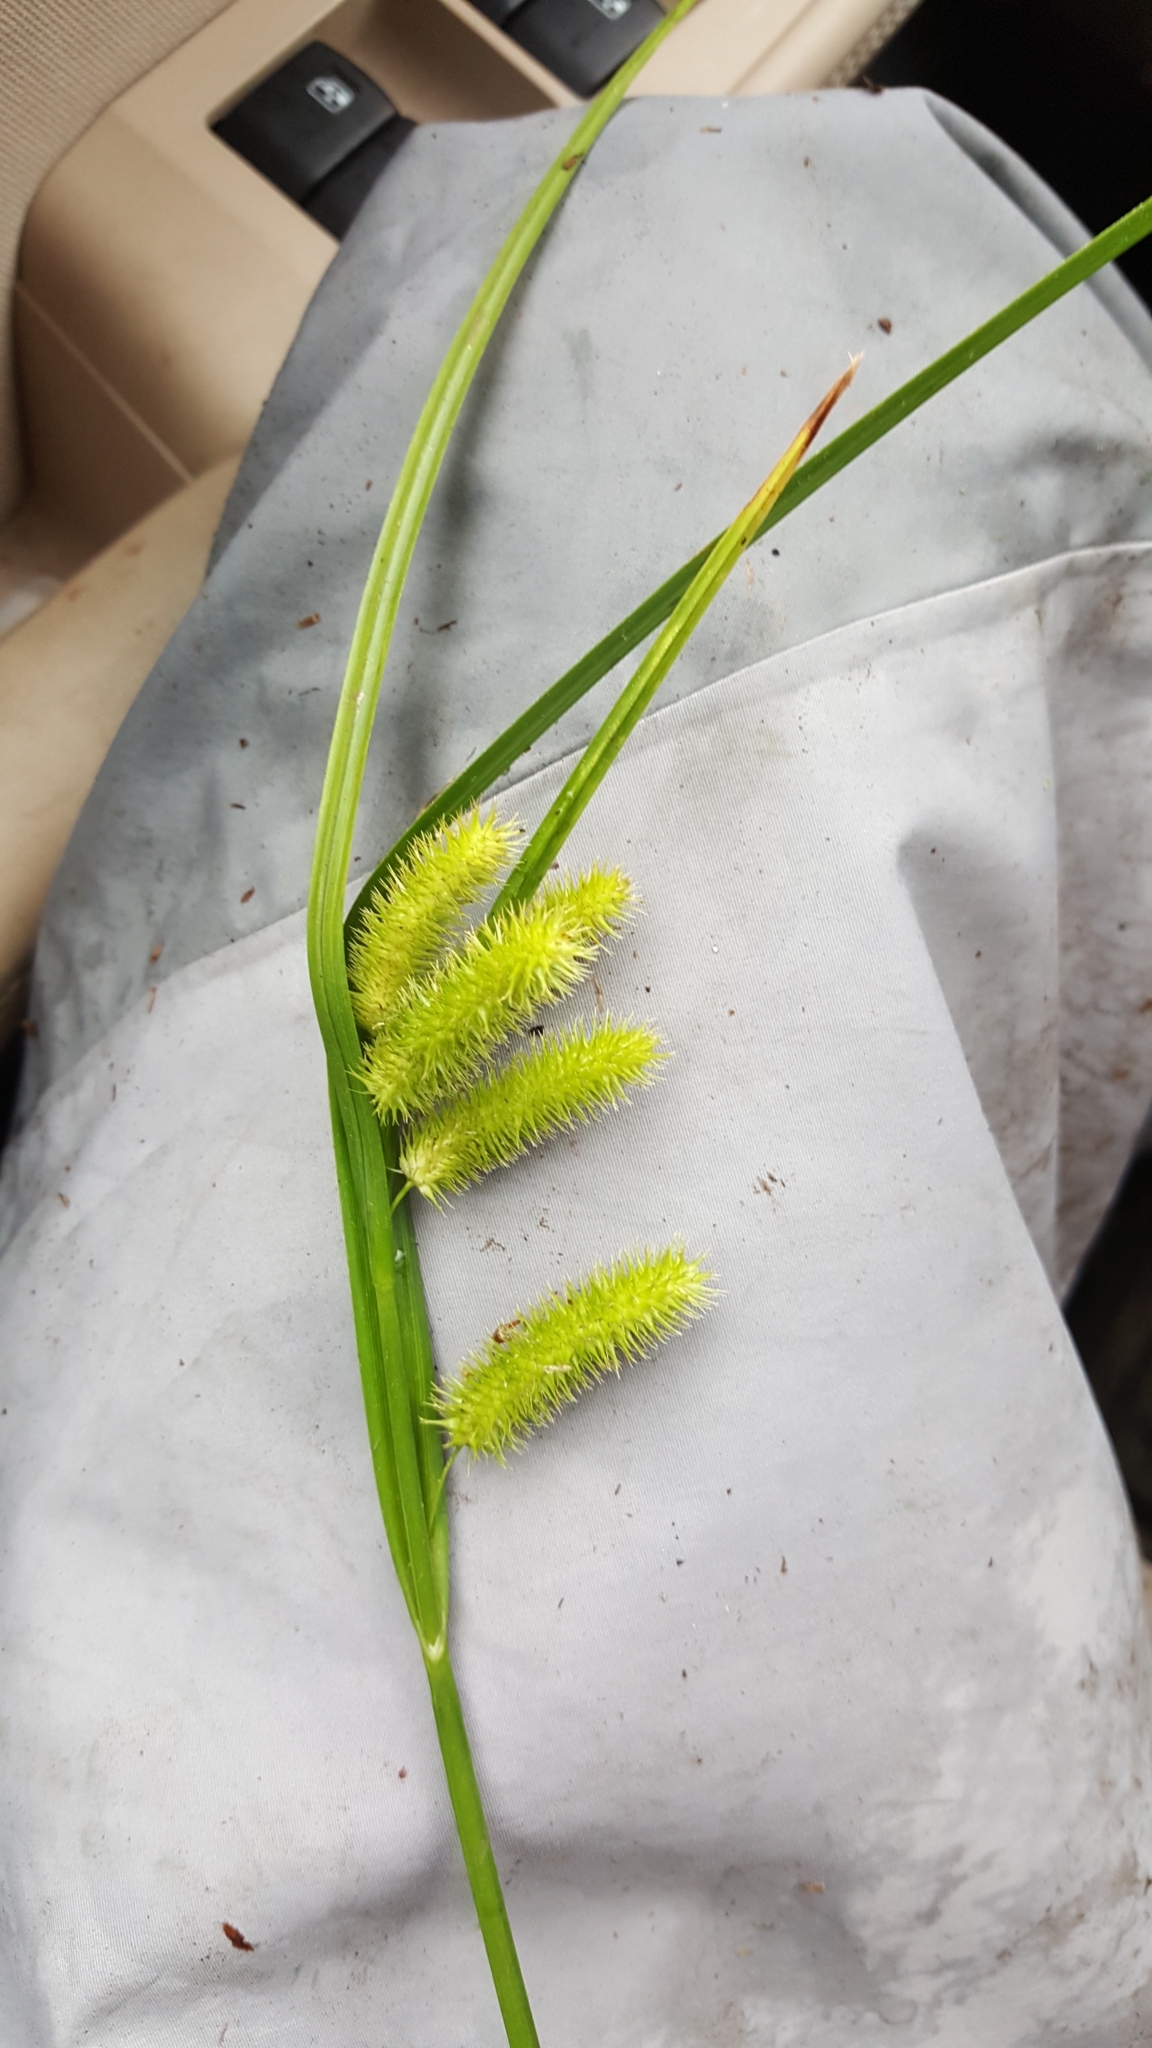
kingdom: Plantae
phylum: Tracheophyta
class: Liliopsida
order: Poales
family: Cyperaceae
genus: Carex
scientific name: Carex comosa
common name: Bristly sedge
